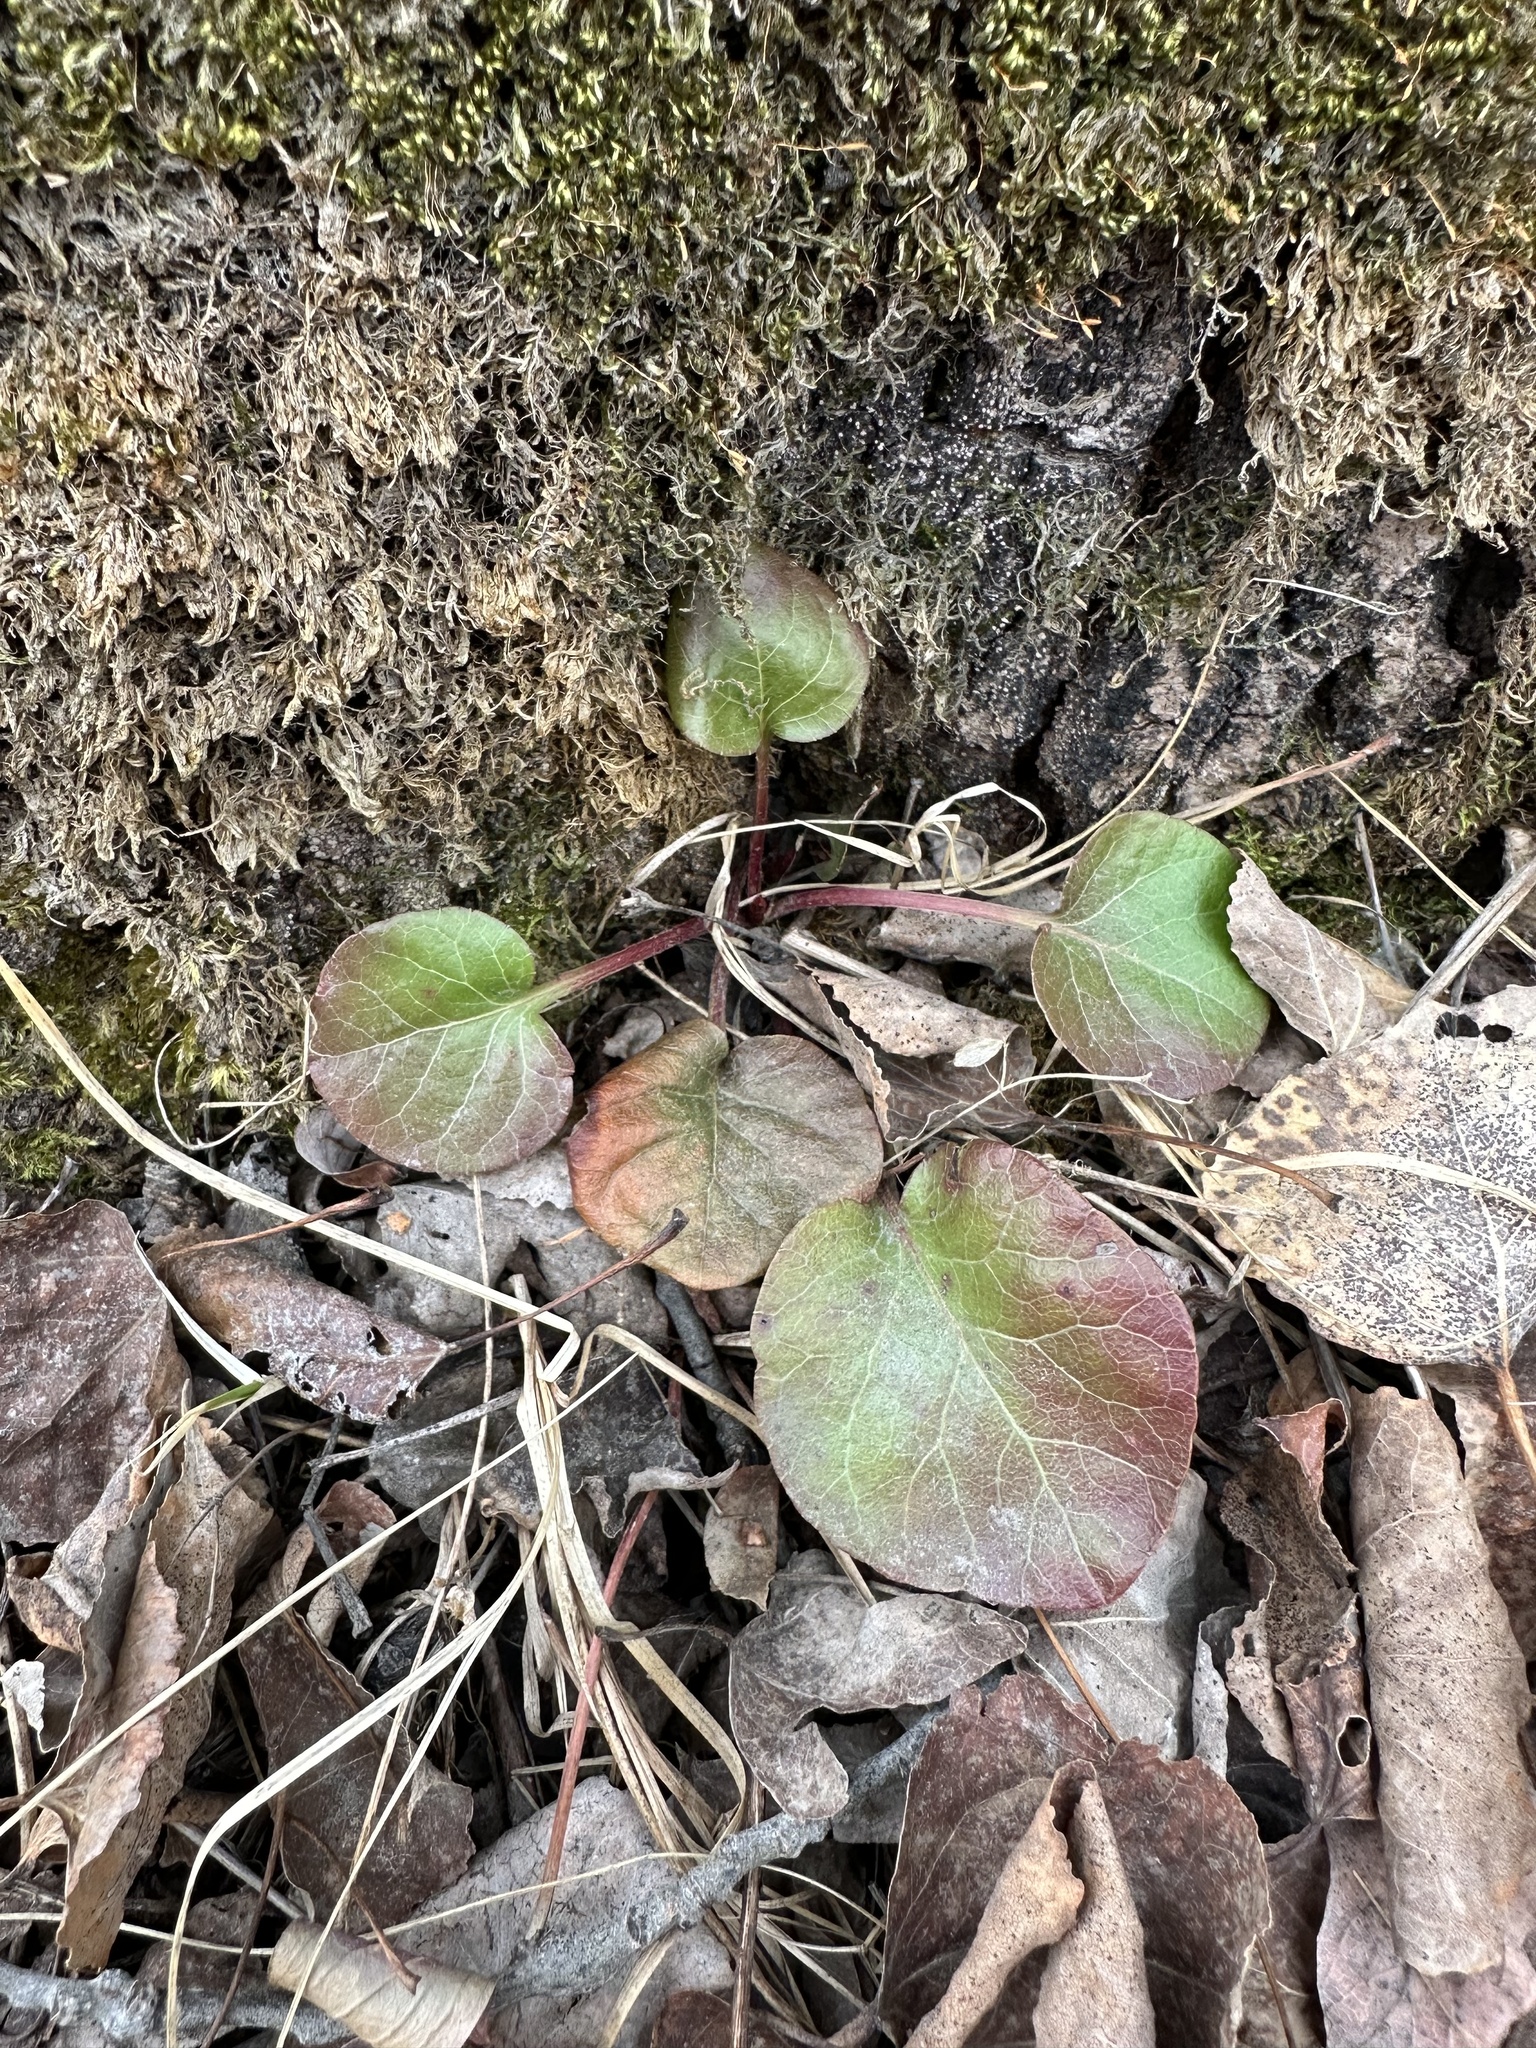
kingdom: Plantae
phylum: Tracheophyta
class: Magnoliopsida
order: Ericales
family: Ericaceae
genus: Pyrola
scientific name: Pyrola asarifolia
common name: Bog wintergreen
